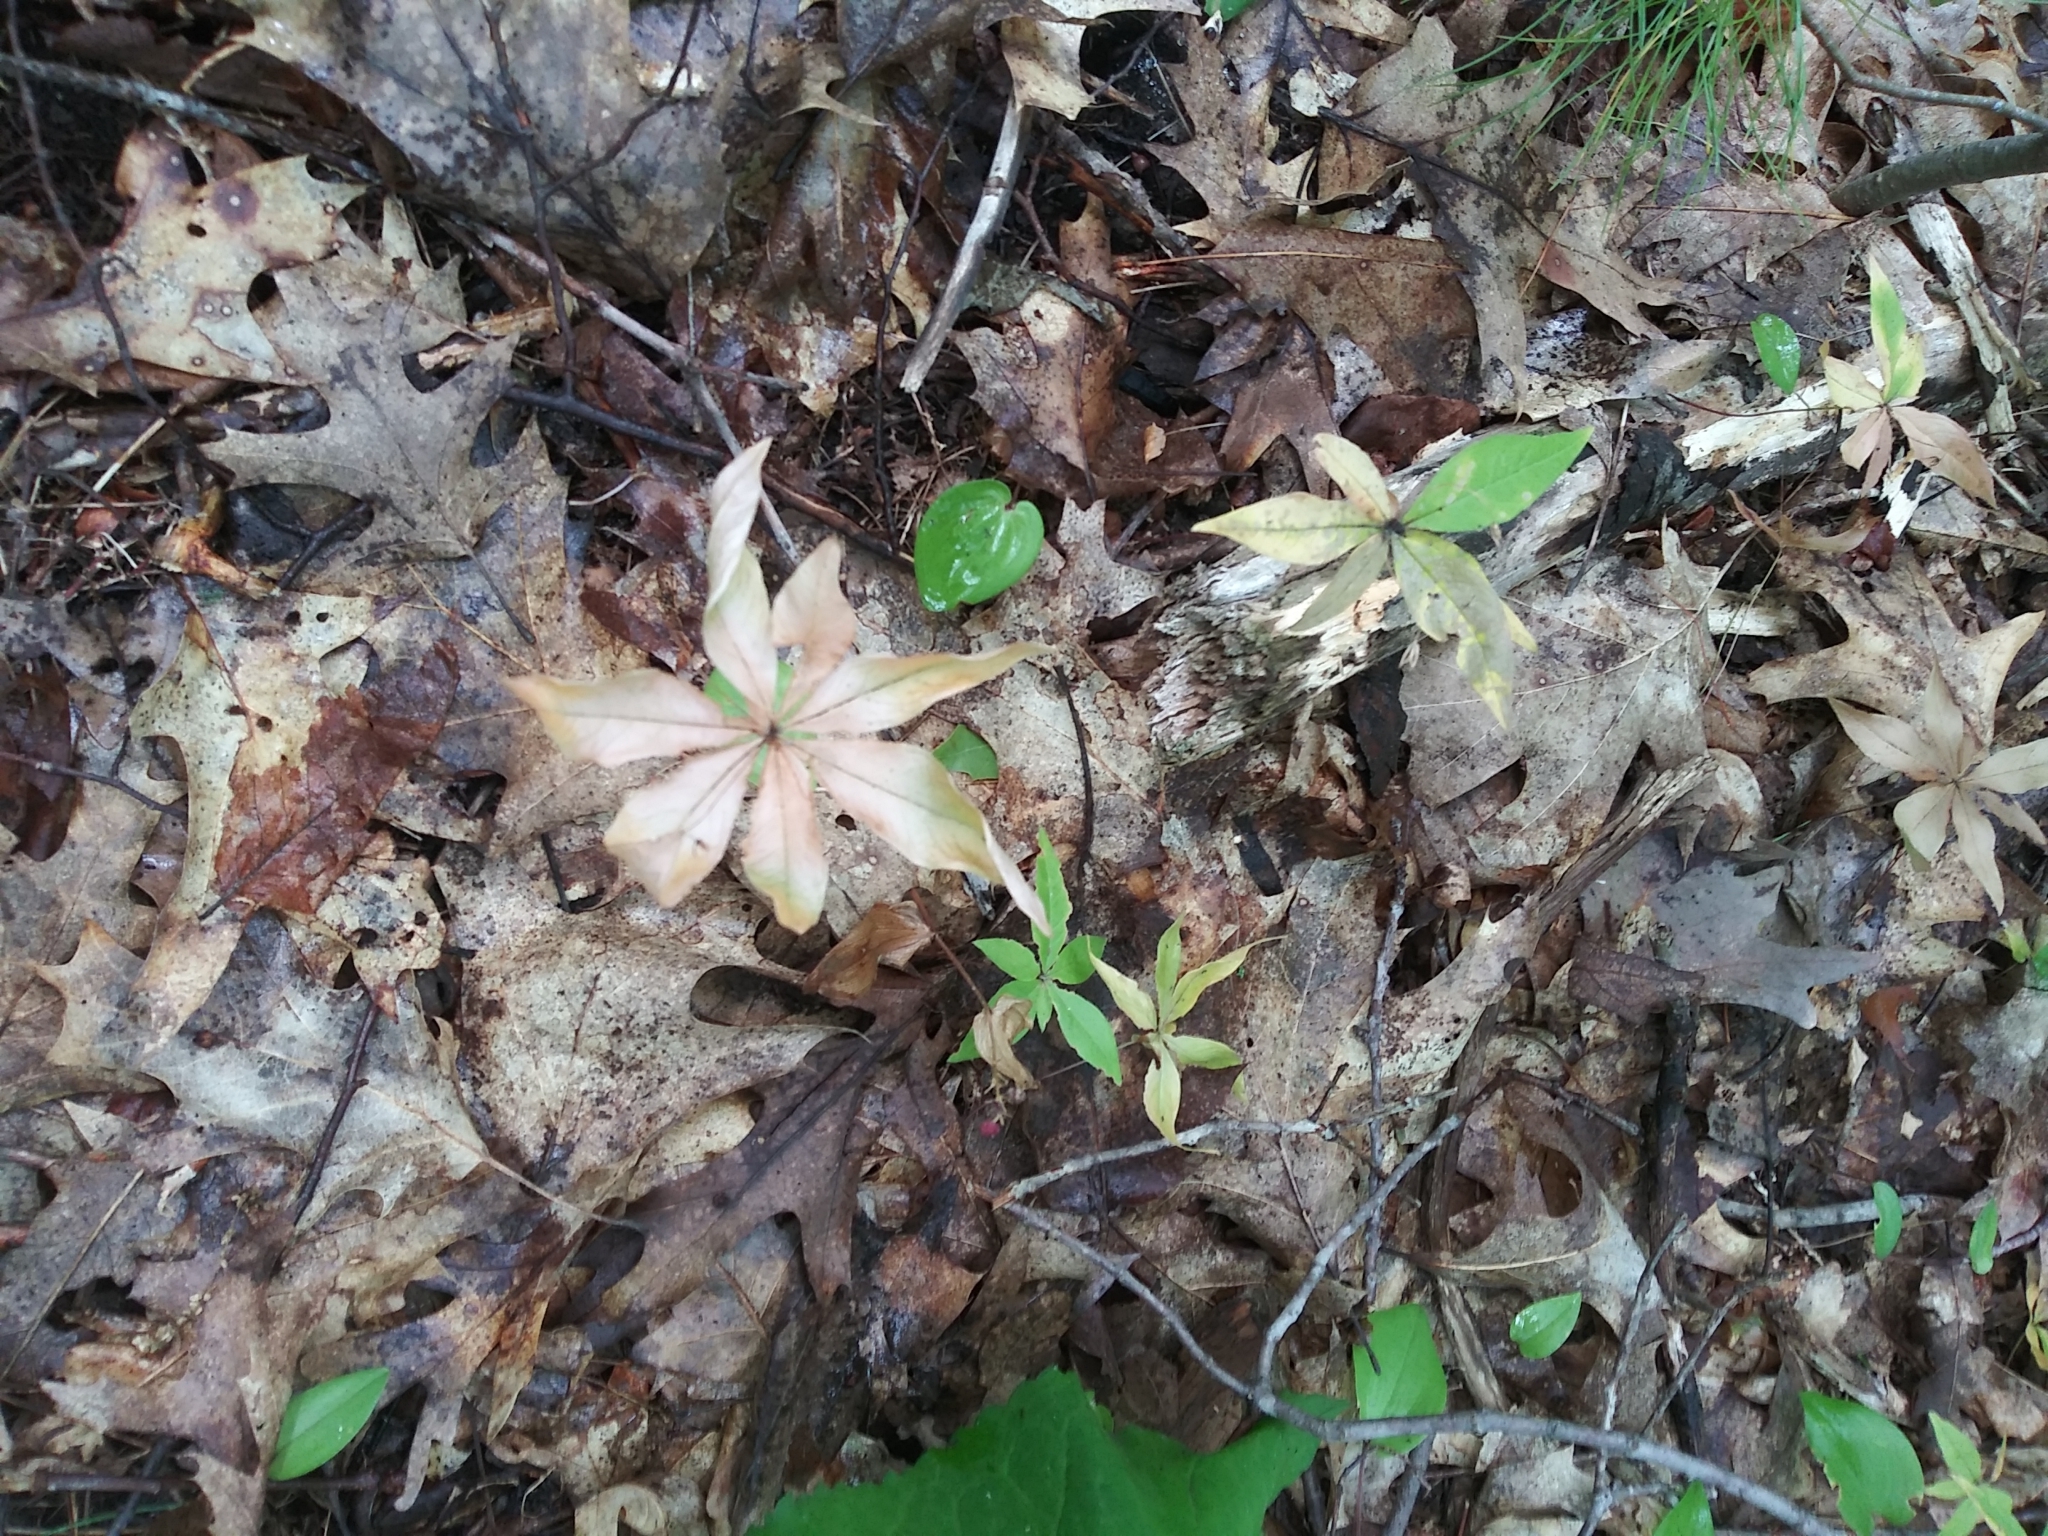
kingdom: Plantae
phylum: Tracheophyta
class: Magnoliopsida
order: Ericales
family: Primulaceae
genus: Lysimachia
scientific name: Lysimachia borealis
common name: American starflower
